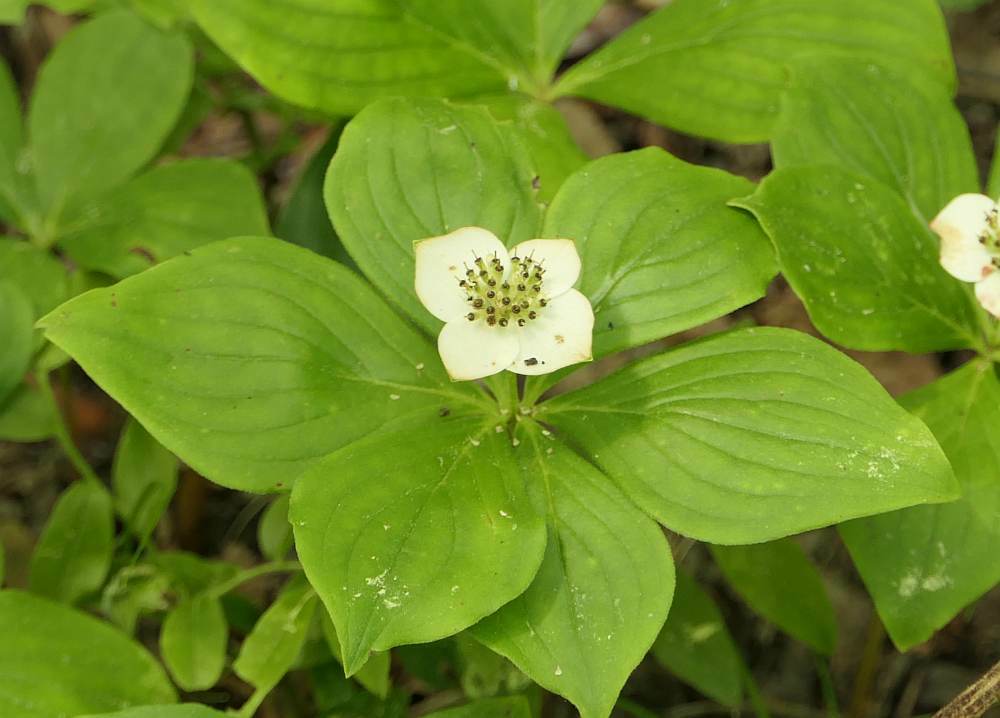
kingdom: Plantae
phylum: Tracheophyta
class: Magnoliopsida
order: Cornales
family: Cornaceae
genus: Cornus
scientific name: Cornus canadensis
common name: Creeping dogwood
